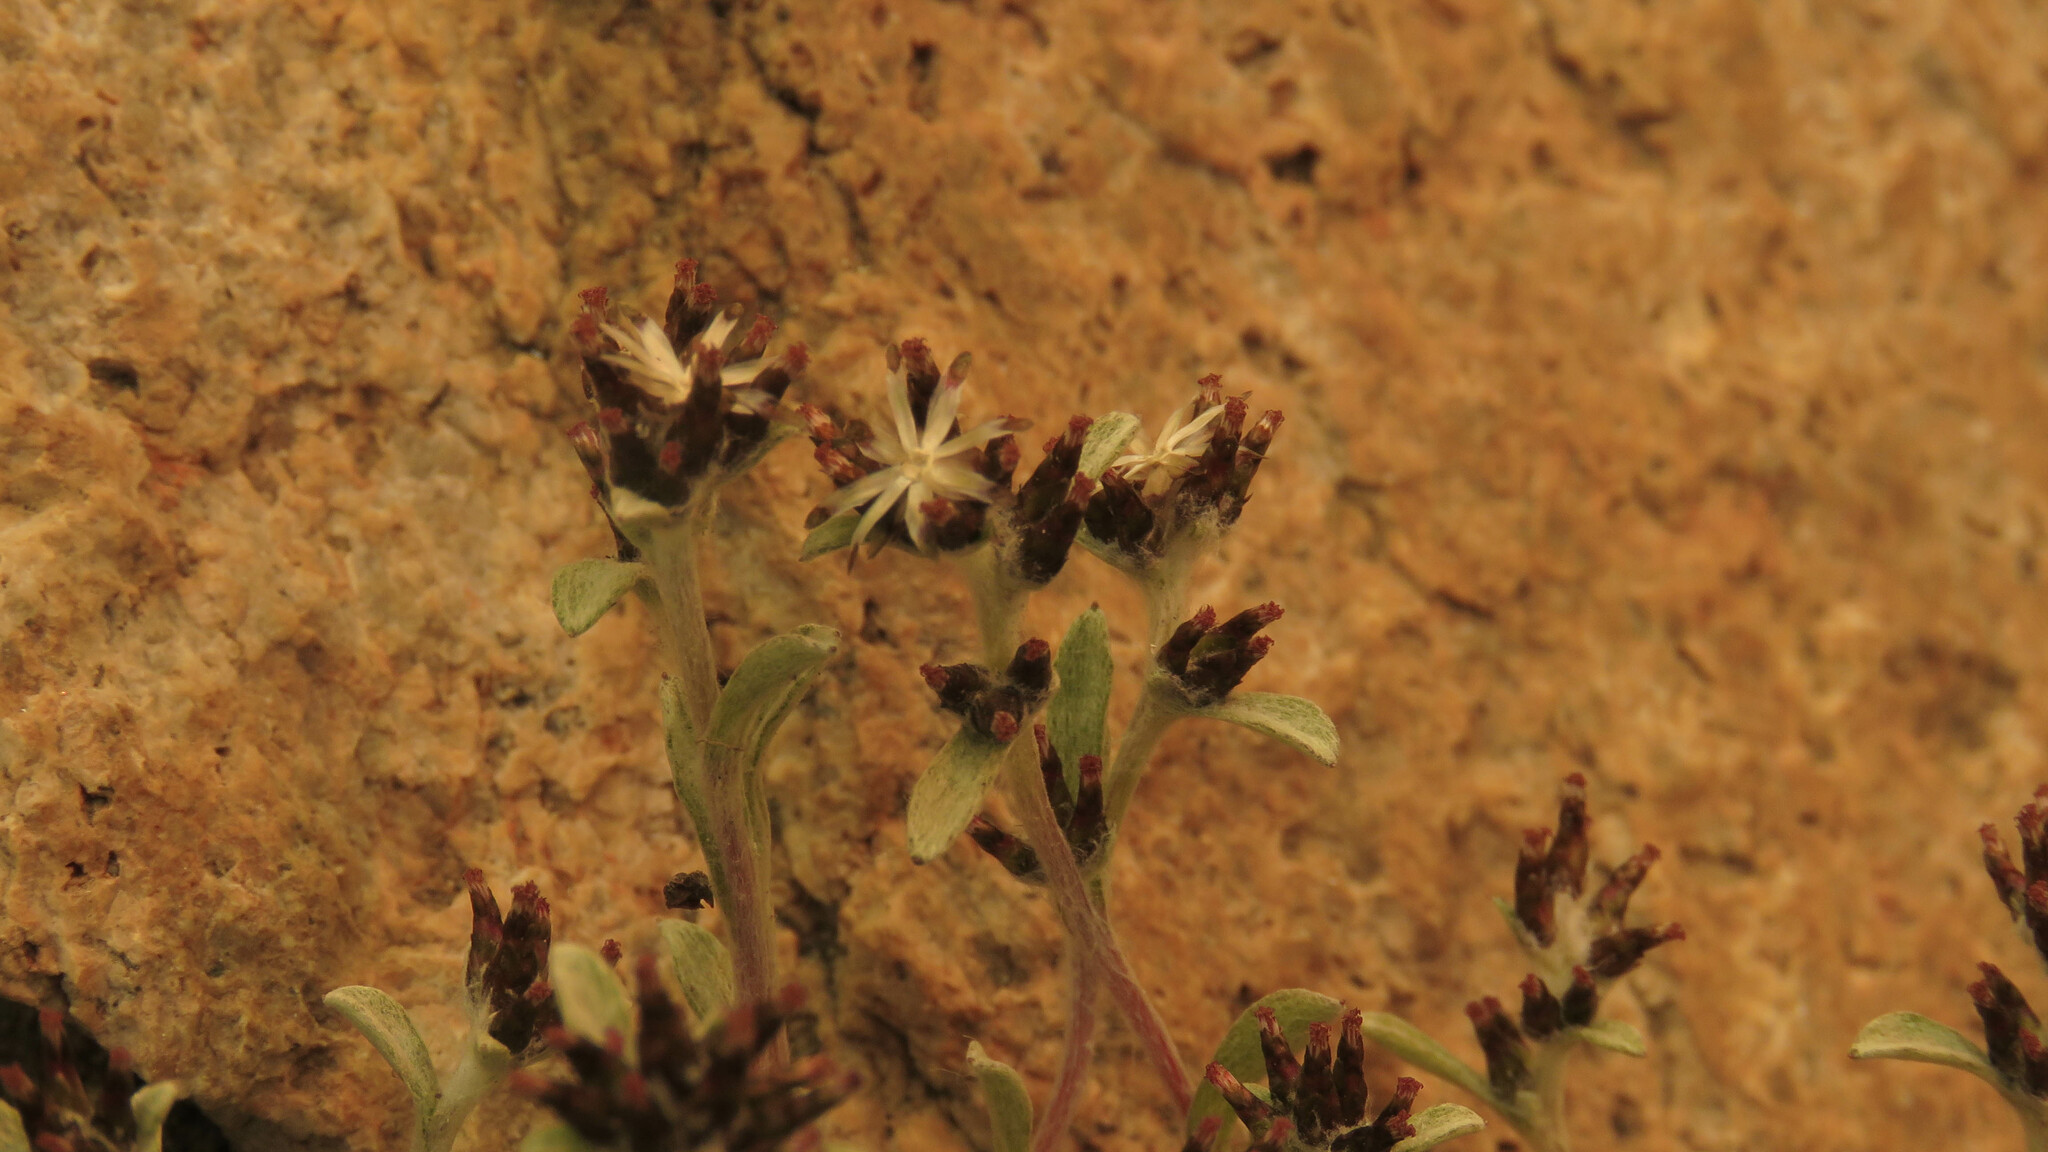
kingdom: Plantae
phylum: Tracheophyta
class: Magnoliopsida
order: Asterales
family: Asteraceae
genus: Gamochaeta
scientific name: Gamochaeta alpina
